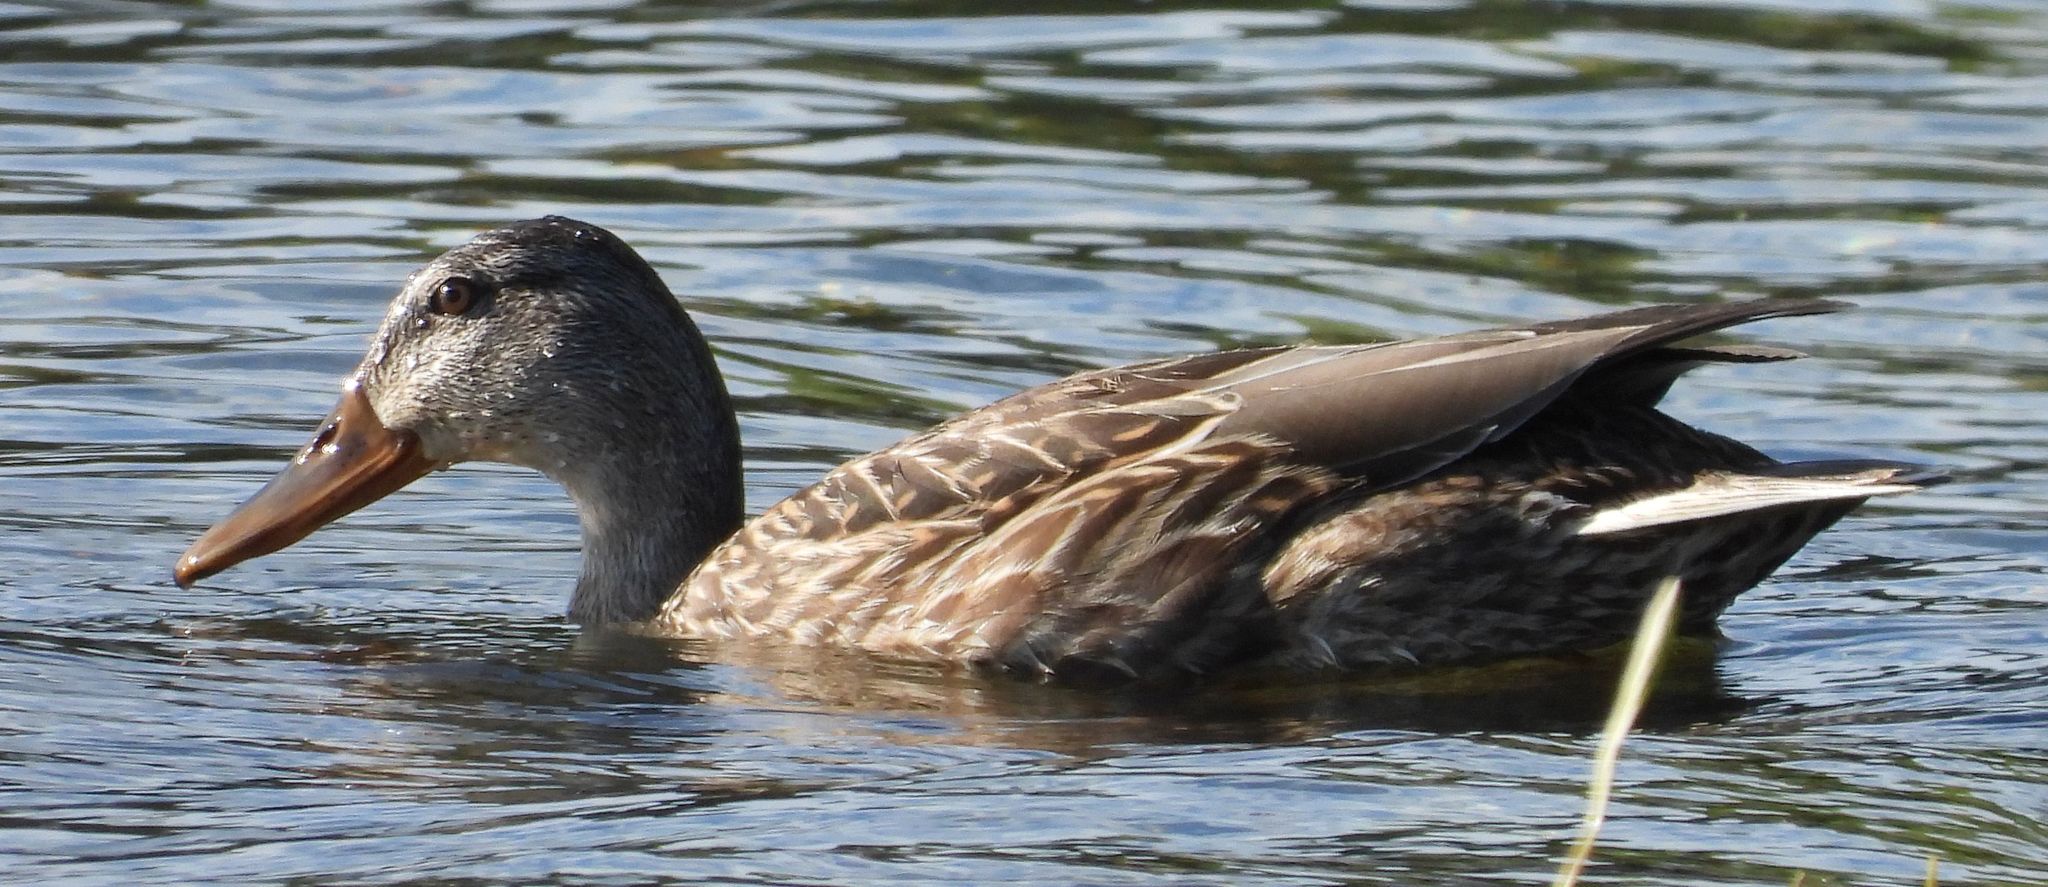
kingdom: Animalia
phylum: Chordata
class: Aves
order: Anseriformes
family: Anatidae
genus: Anas
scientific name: Anas platyrhynchos
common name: Mallard
